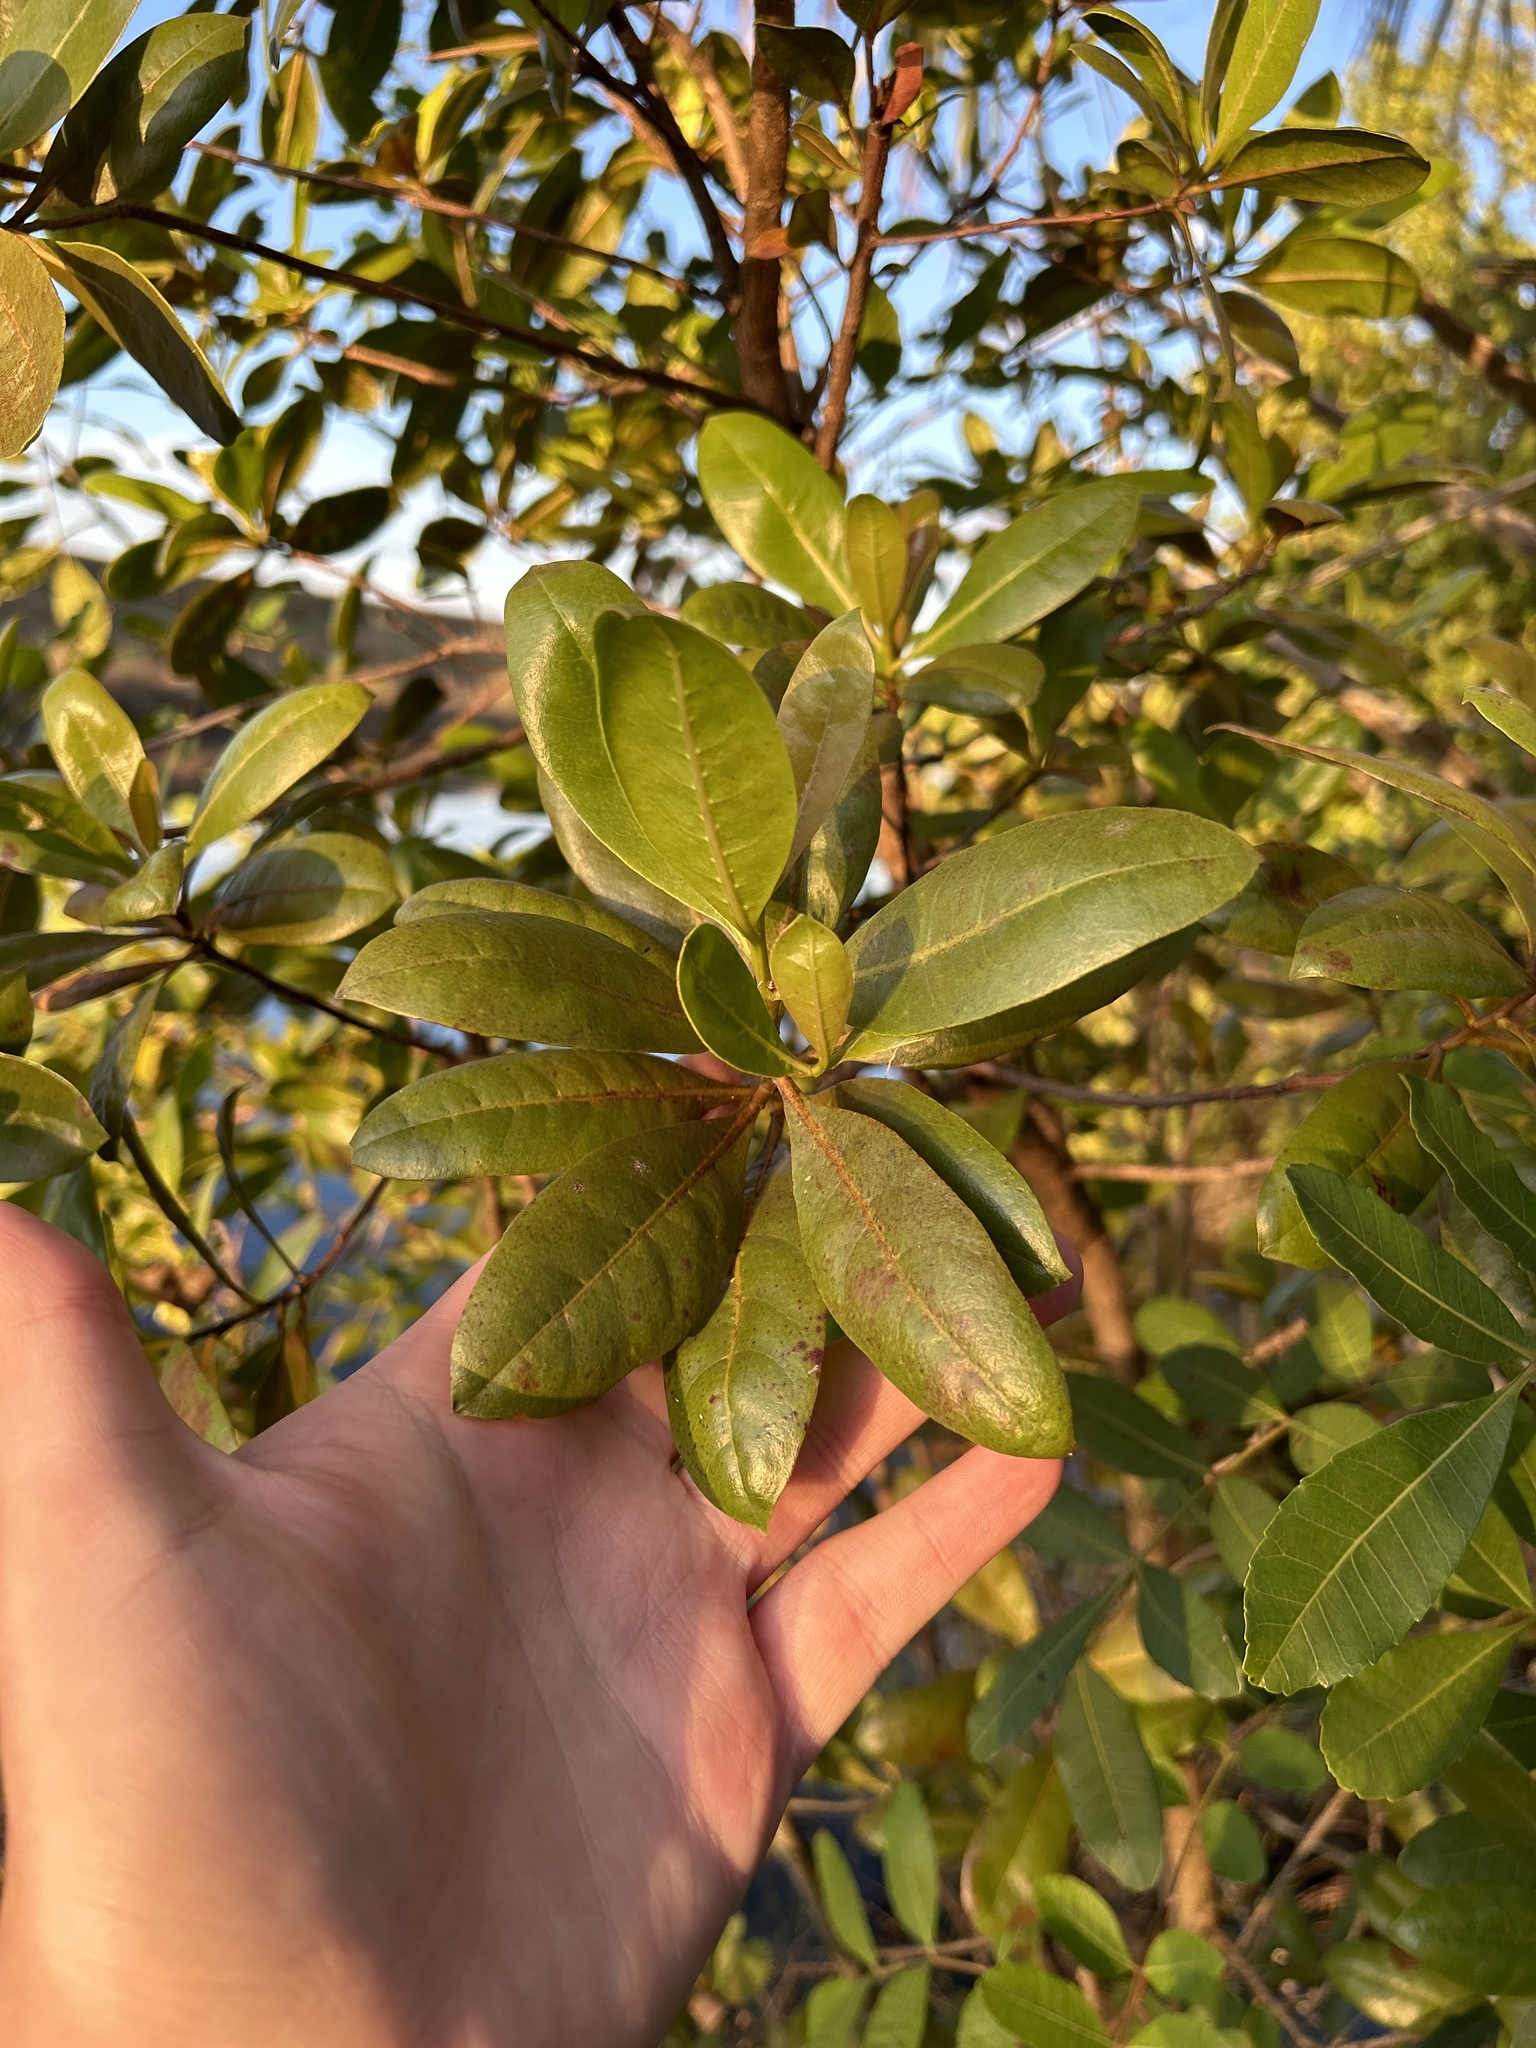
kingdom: Plantae
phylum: Tracheophyta
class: Magnoliopsida
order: Myrtales
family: Combretaceae
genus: Conocarpus
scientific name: Conocarpus erectus
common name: Button mangrove
